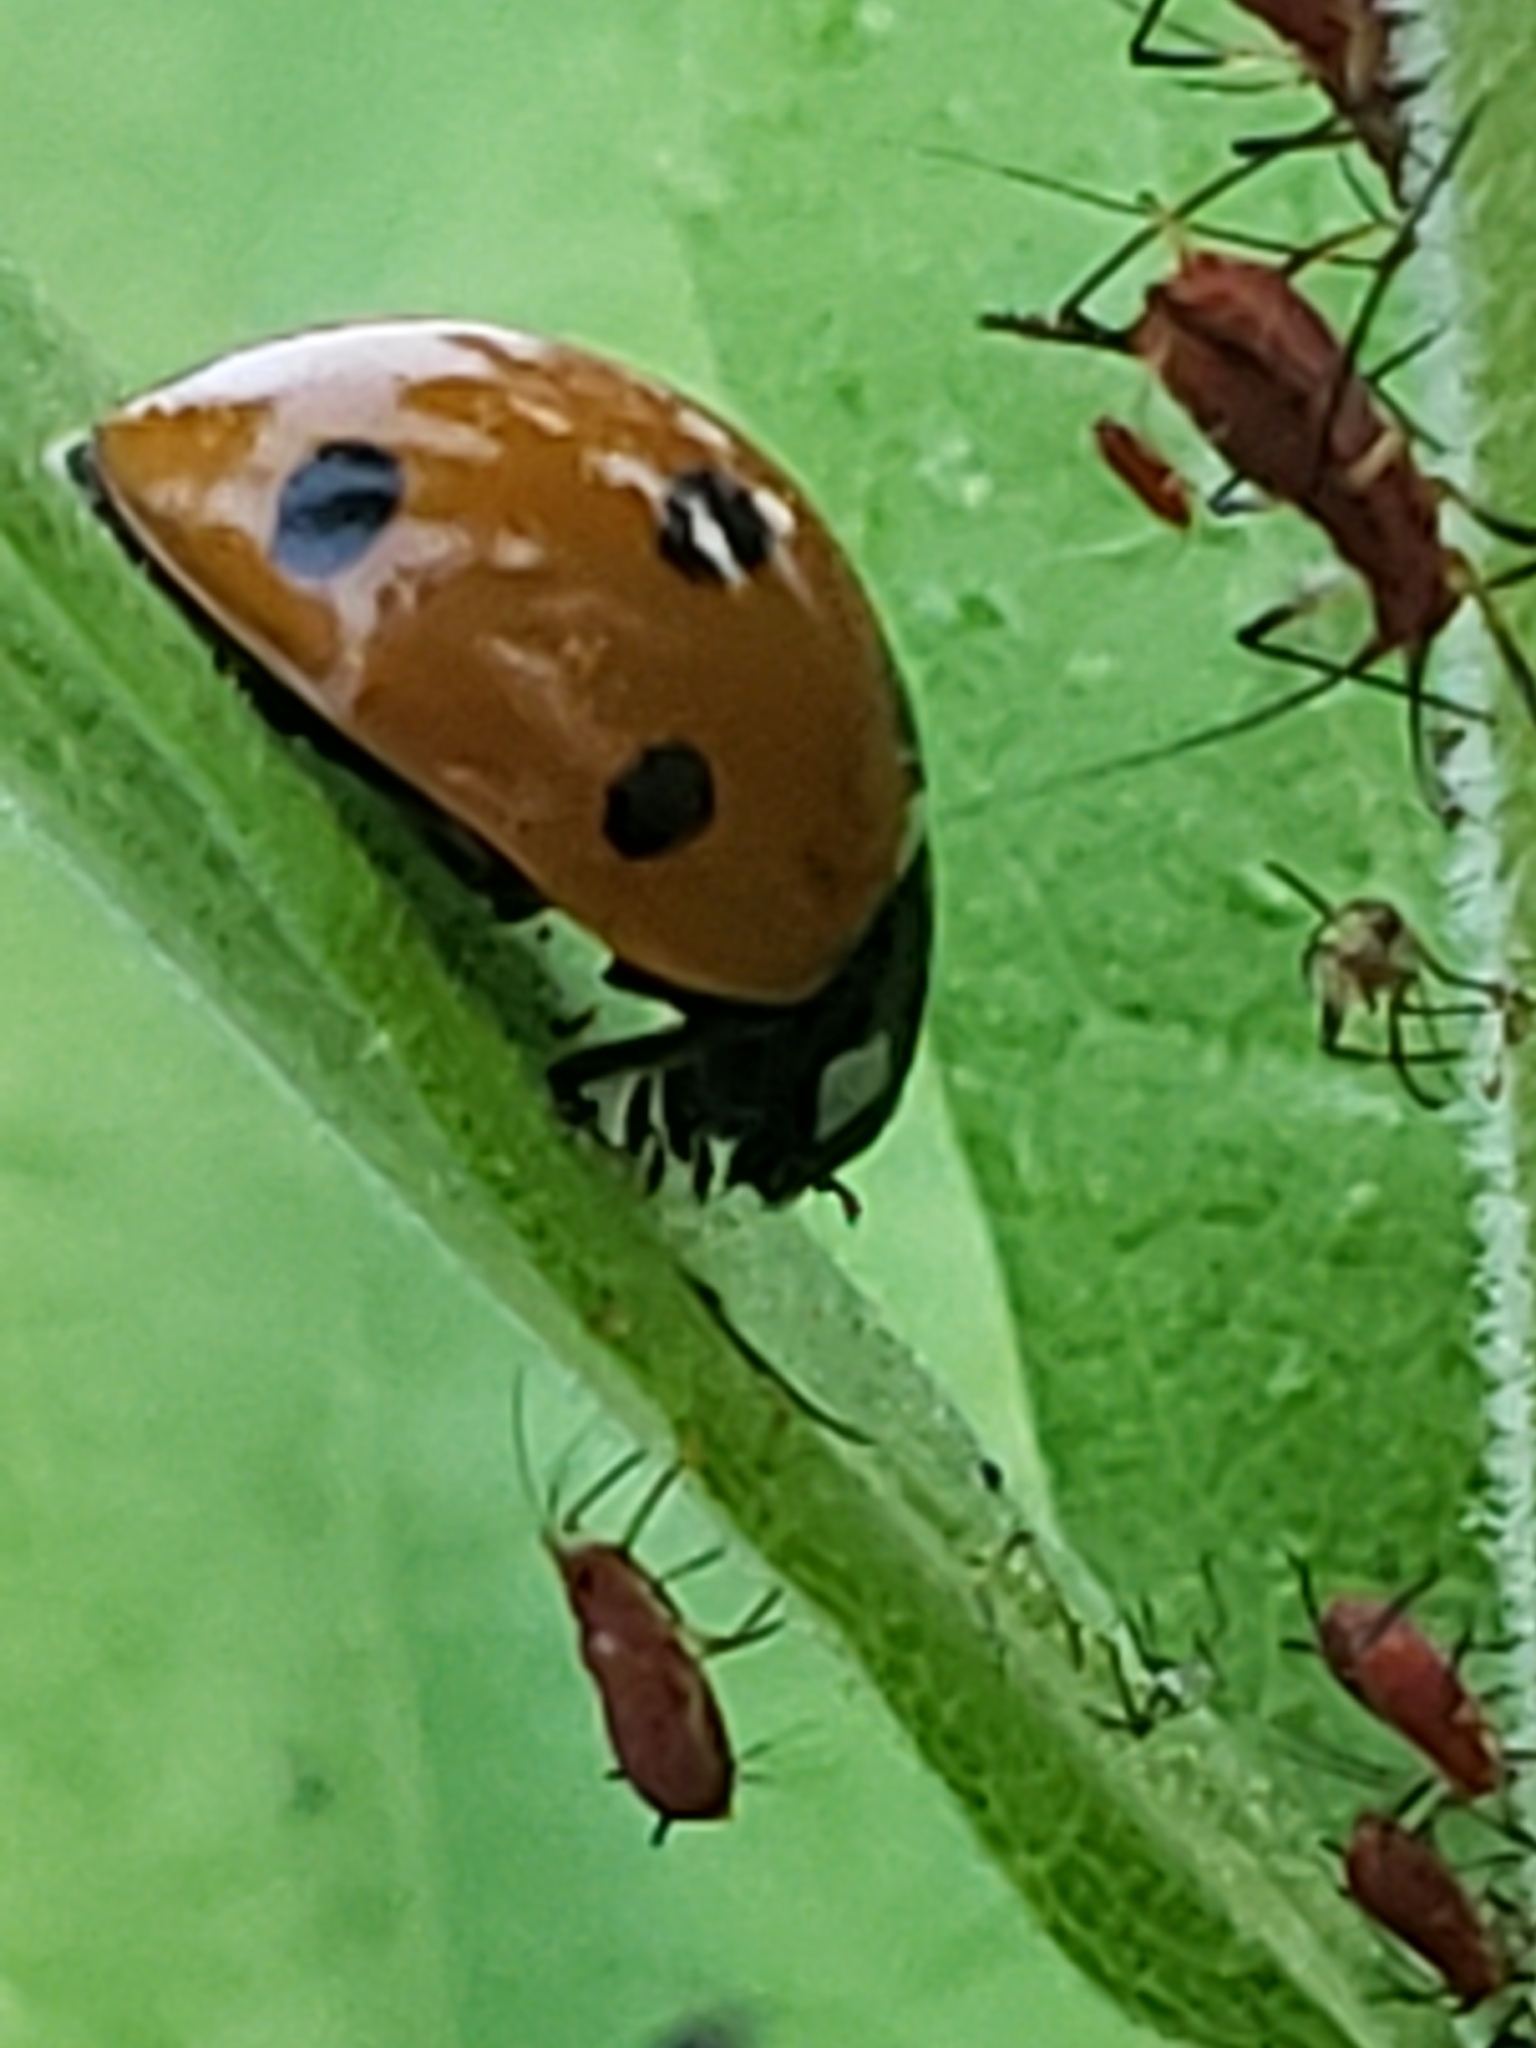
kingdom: Animalia
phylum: Arthropoda
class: Insecta
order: Coleoptera
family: Coccinellidae
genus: Coccinella
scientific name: Coccinella septempunctata
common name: Sevenspotted lady beetle
